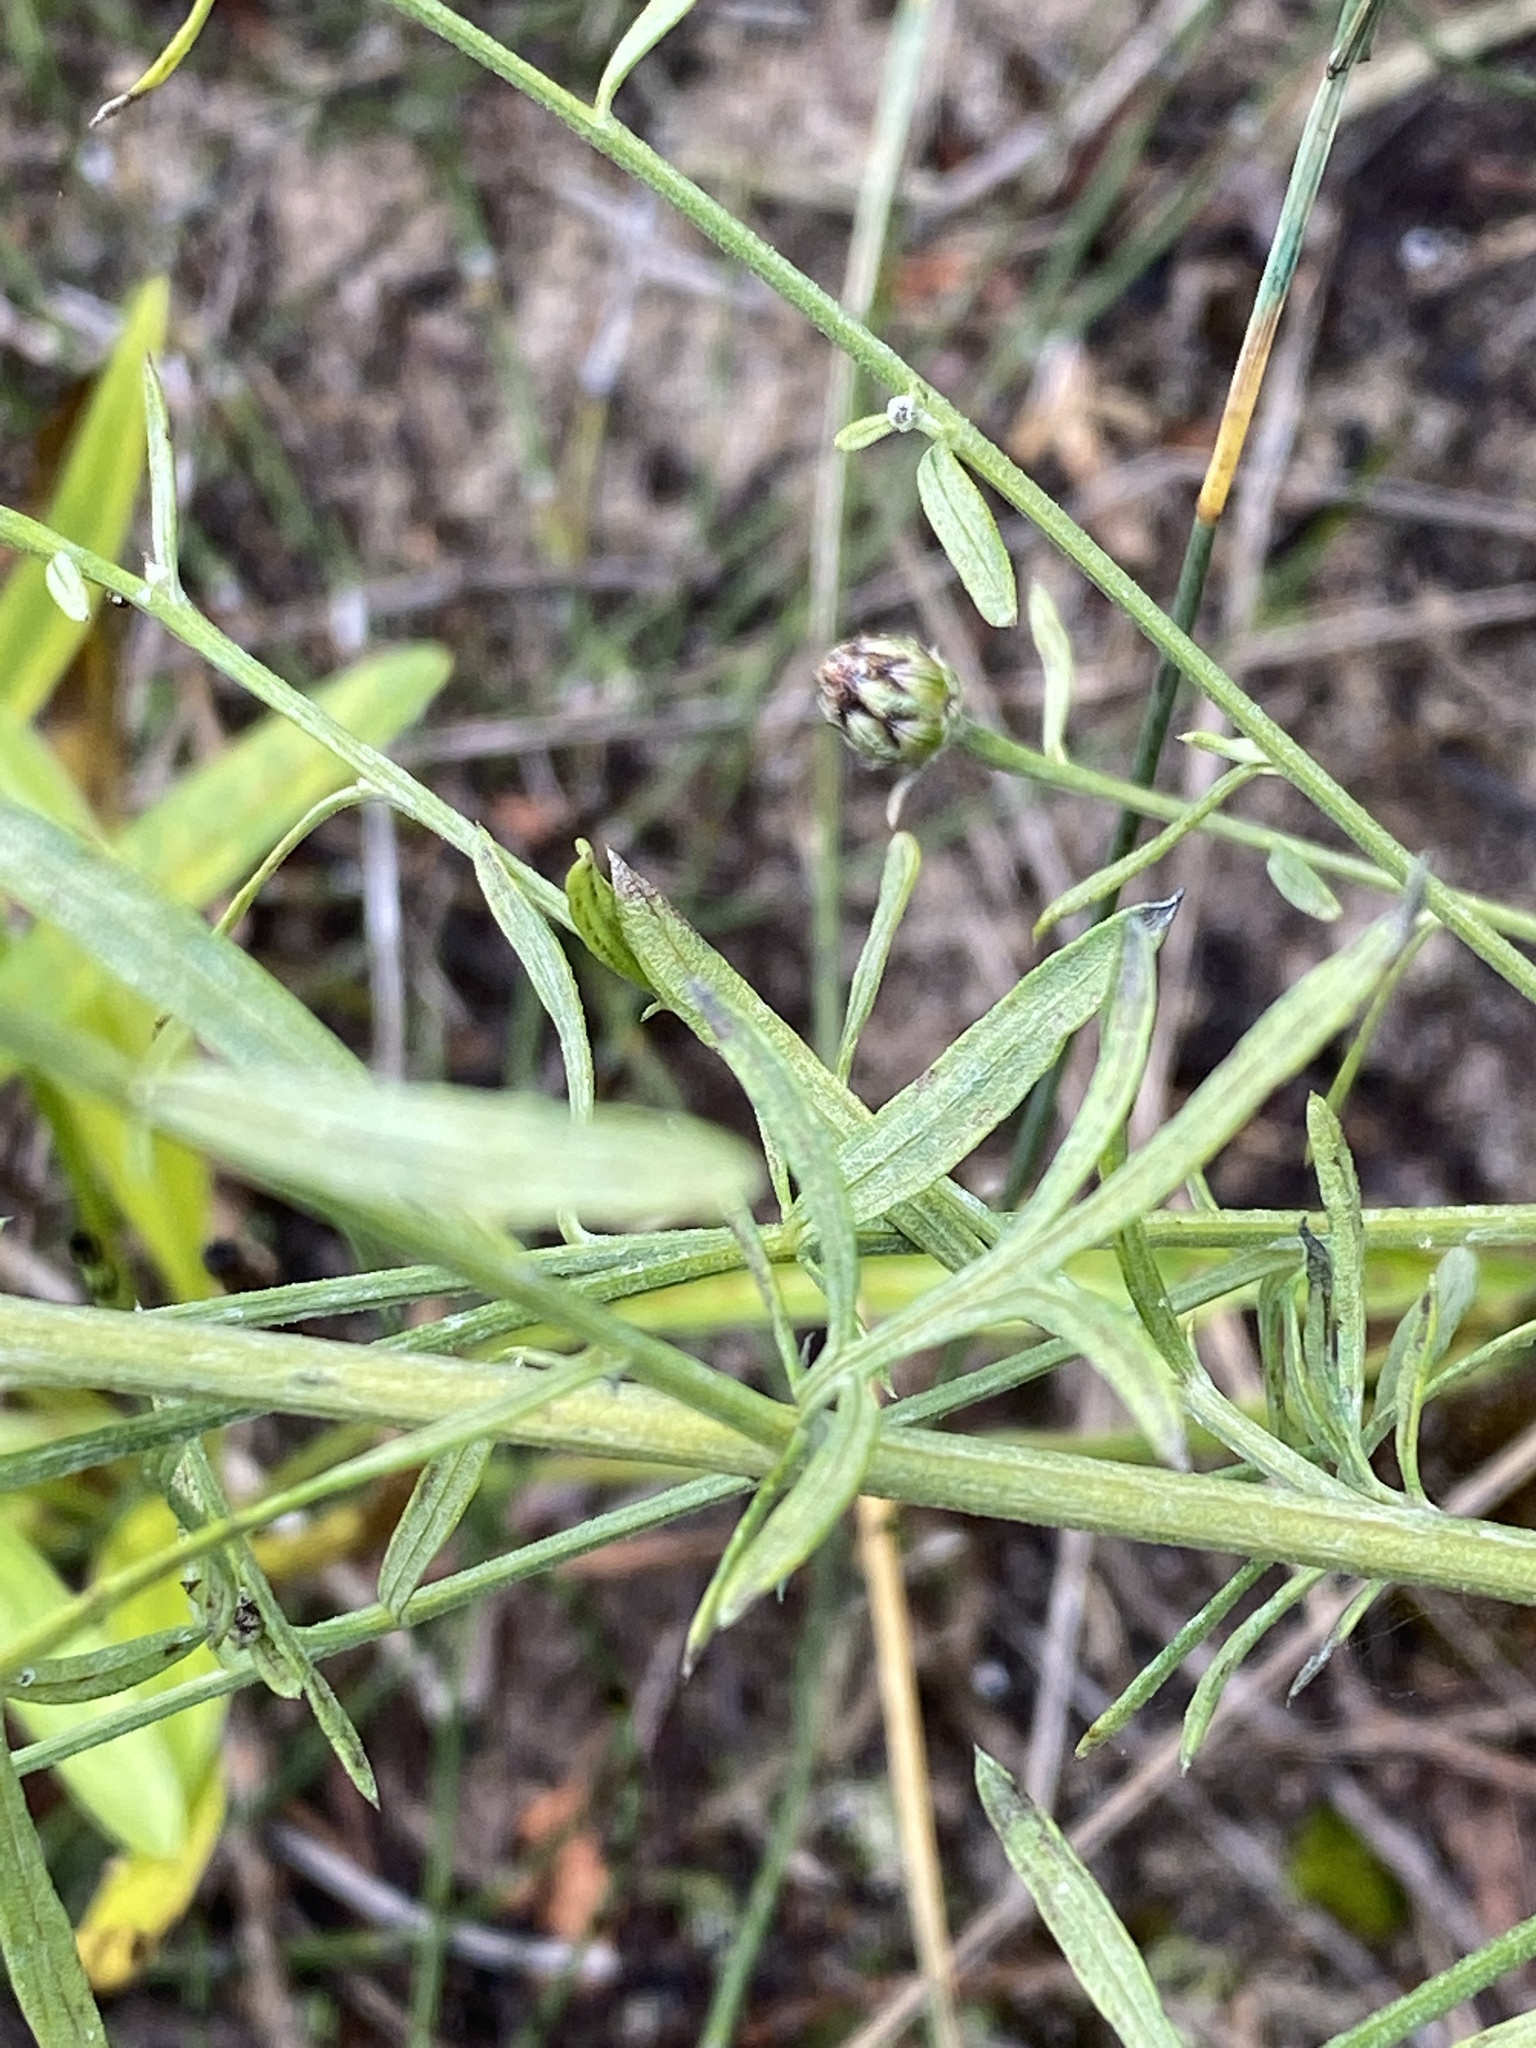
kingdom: Plantae
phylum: Tracheophyta
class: Magnoliopsida
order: Asterales
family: Asteraceae
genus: Centaurea
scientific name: Centaurea stoebe
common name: Spotted knapweed
